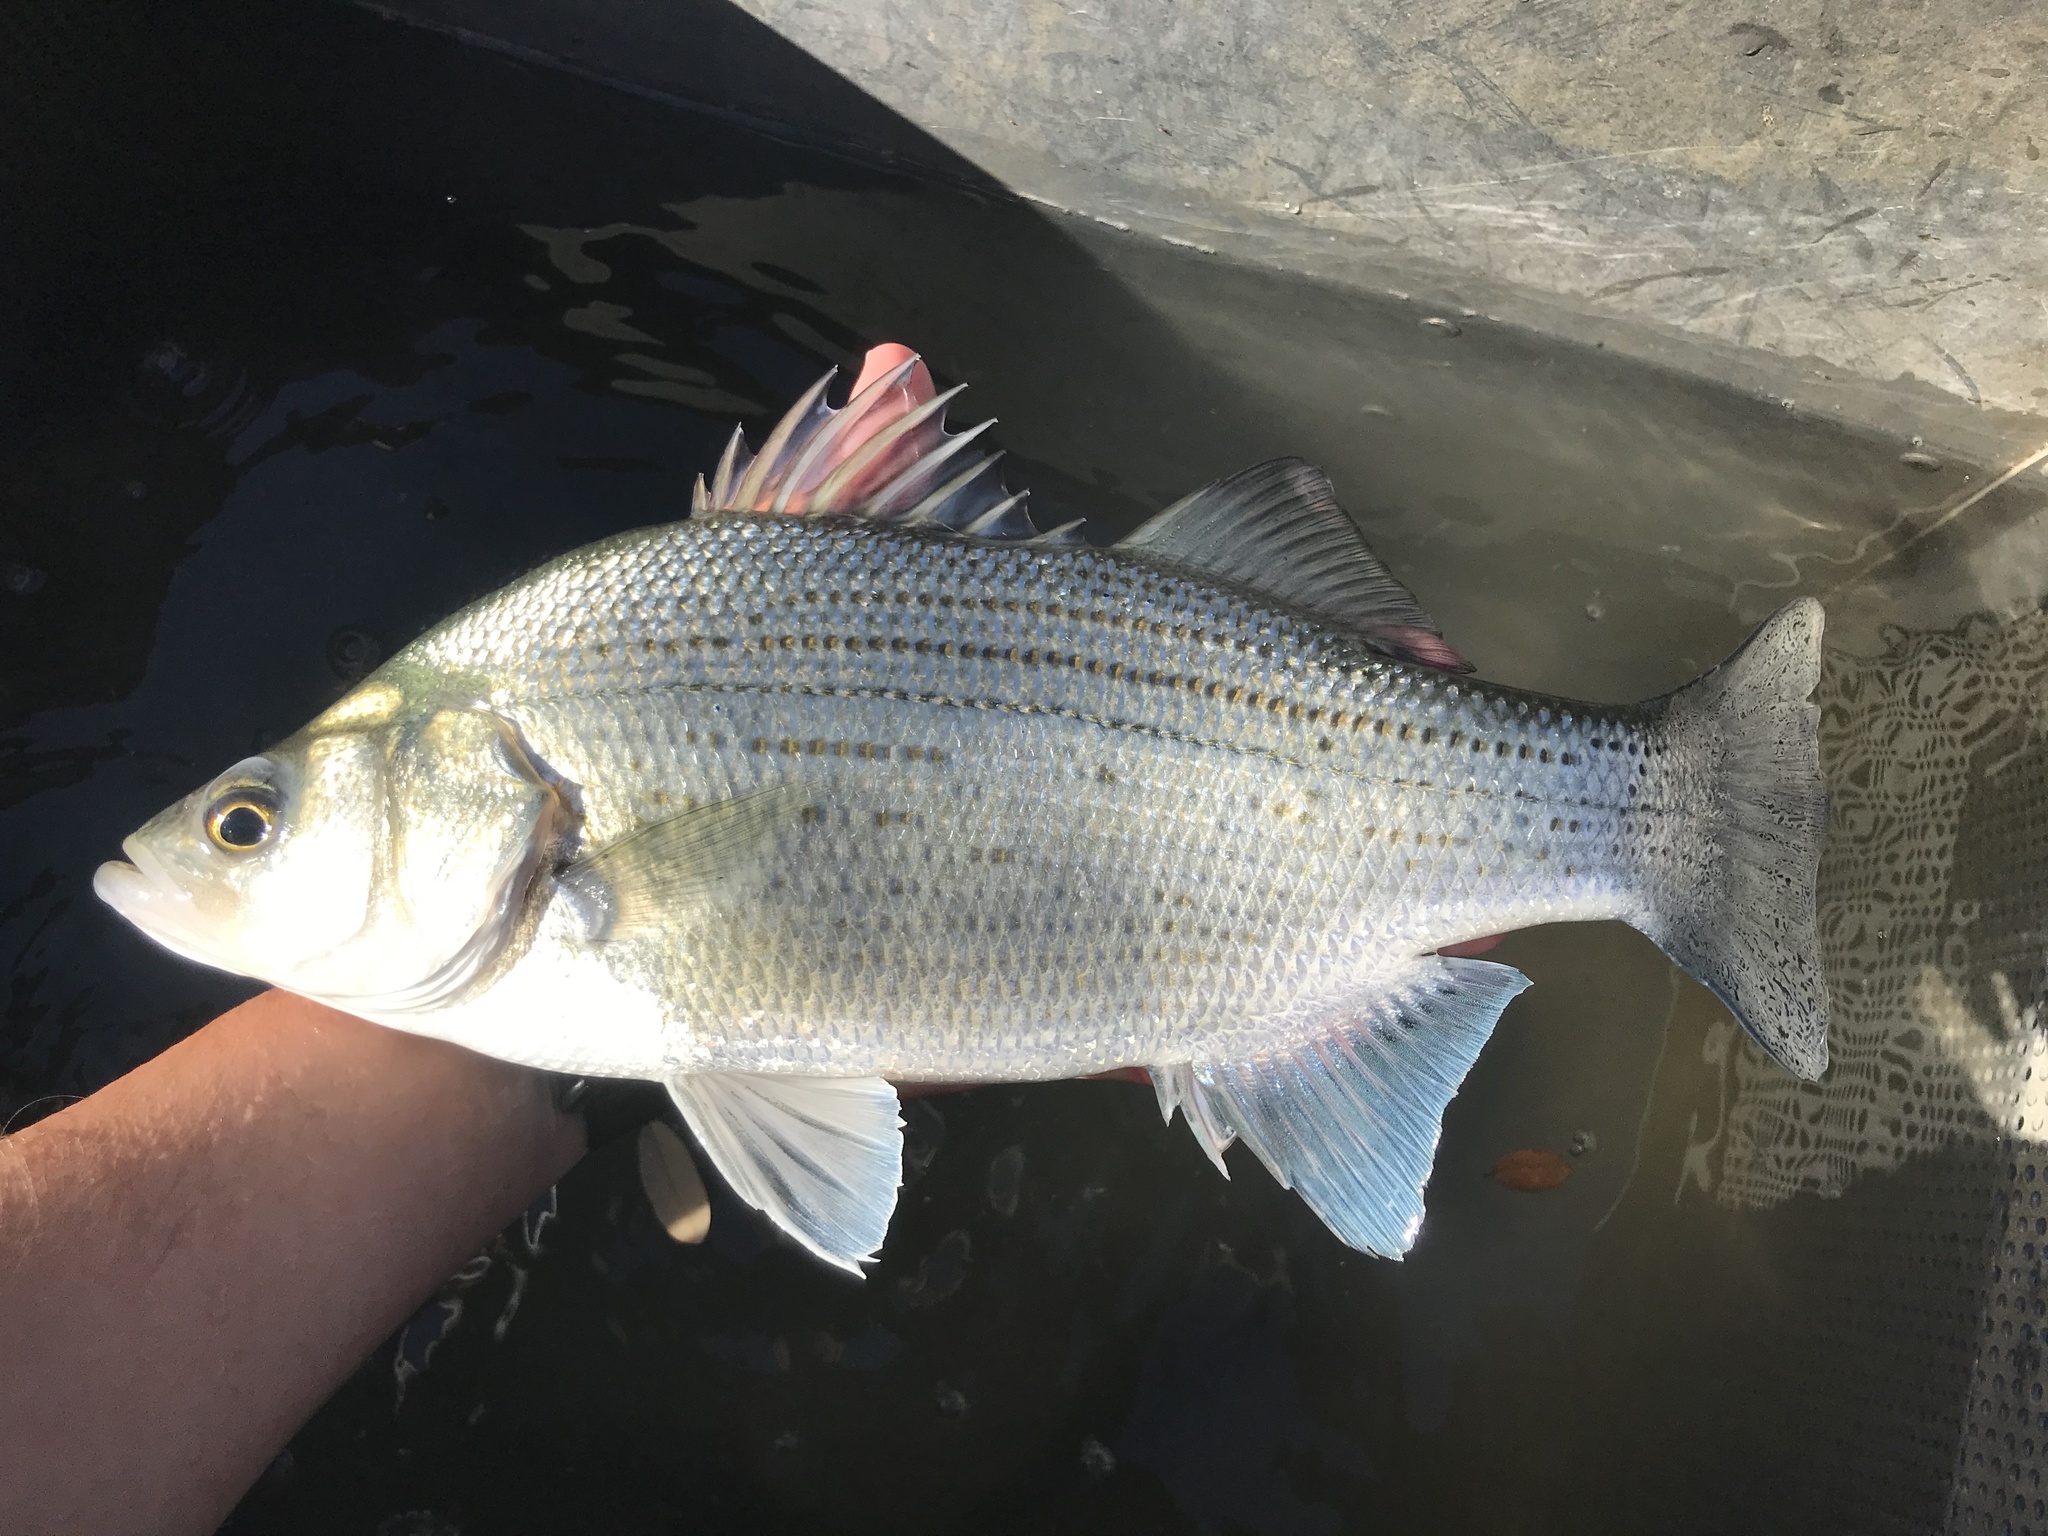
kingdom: Animalia
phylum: Chordata
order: Perciformes
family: Moronidae
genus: Morone
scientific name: Morone chrysops
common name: White bass
